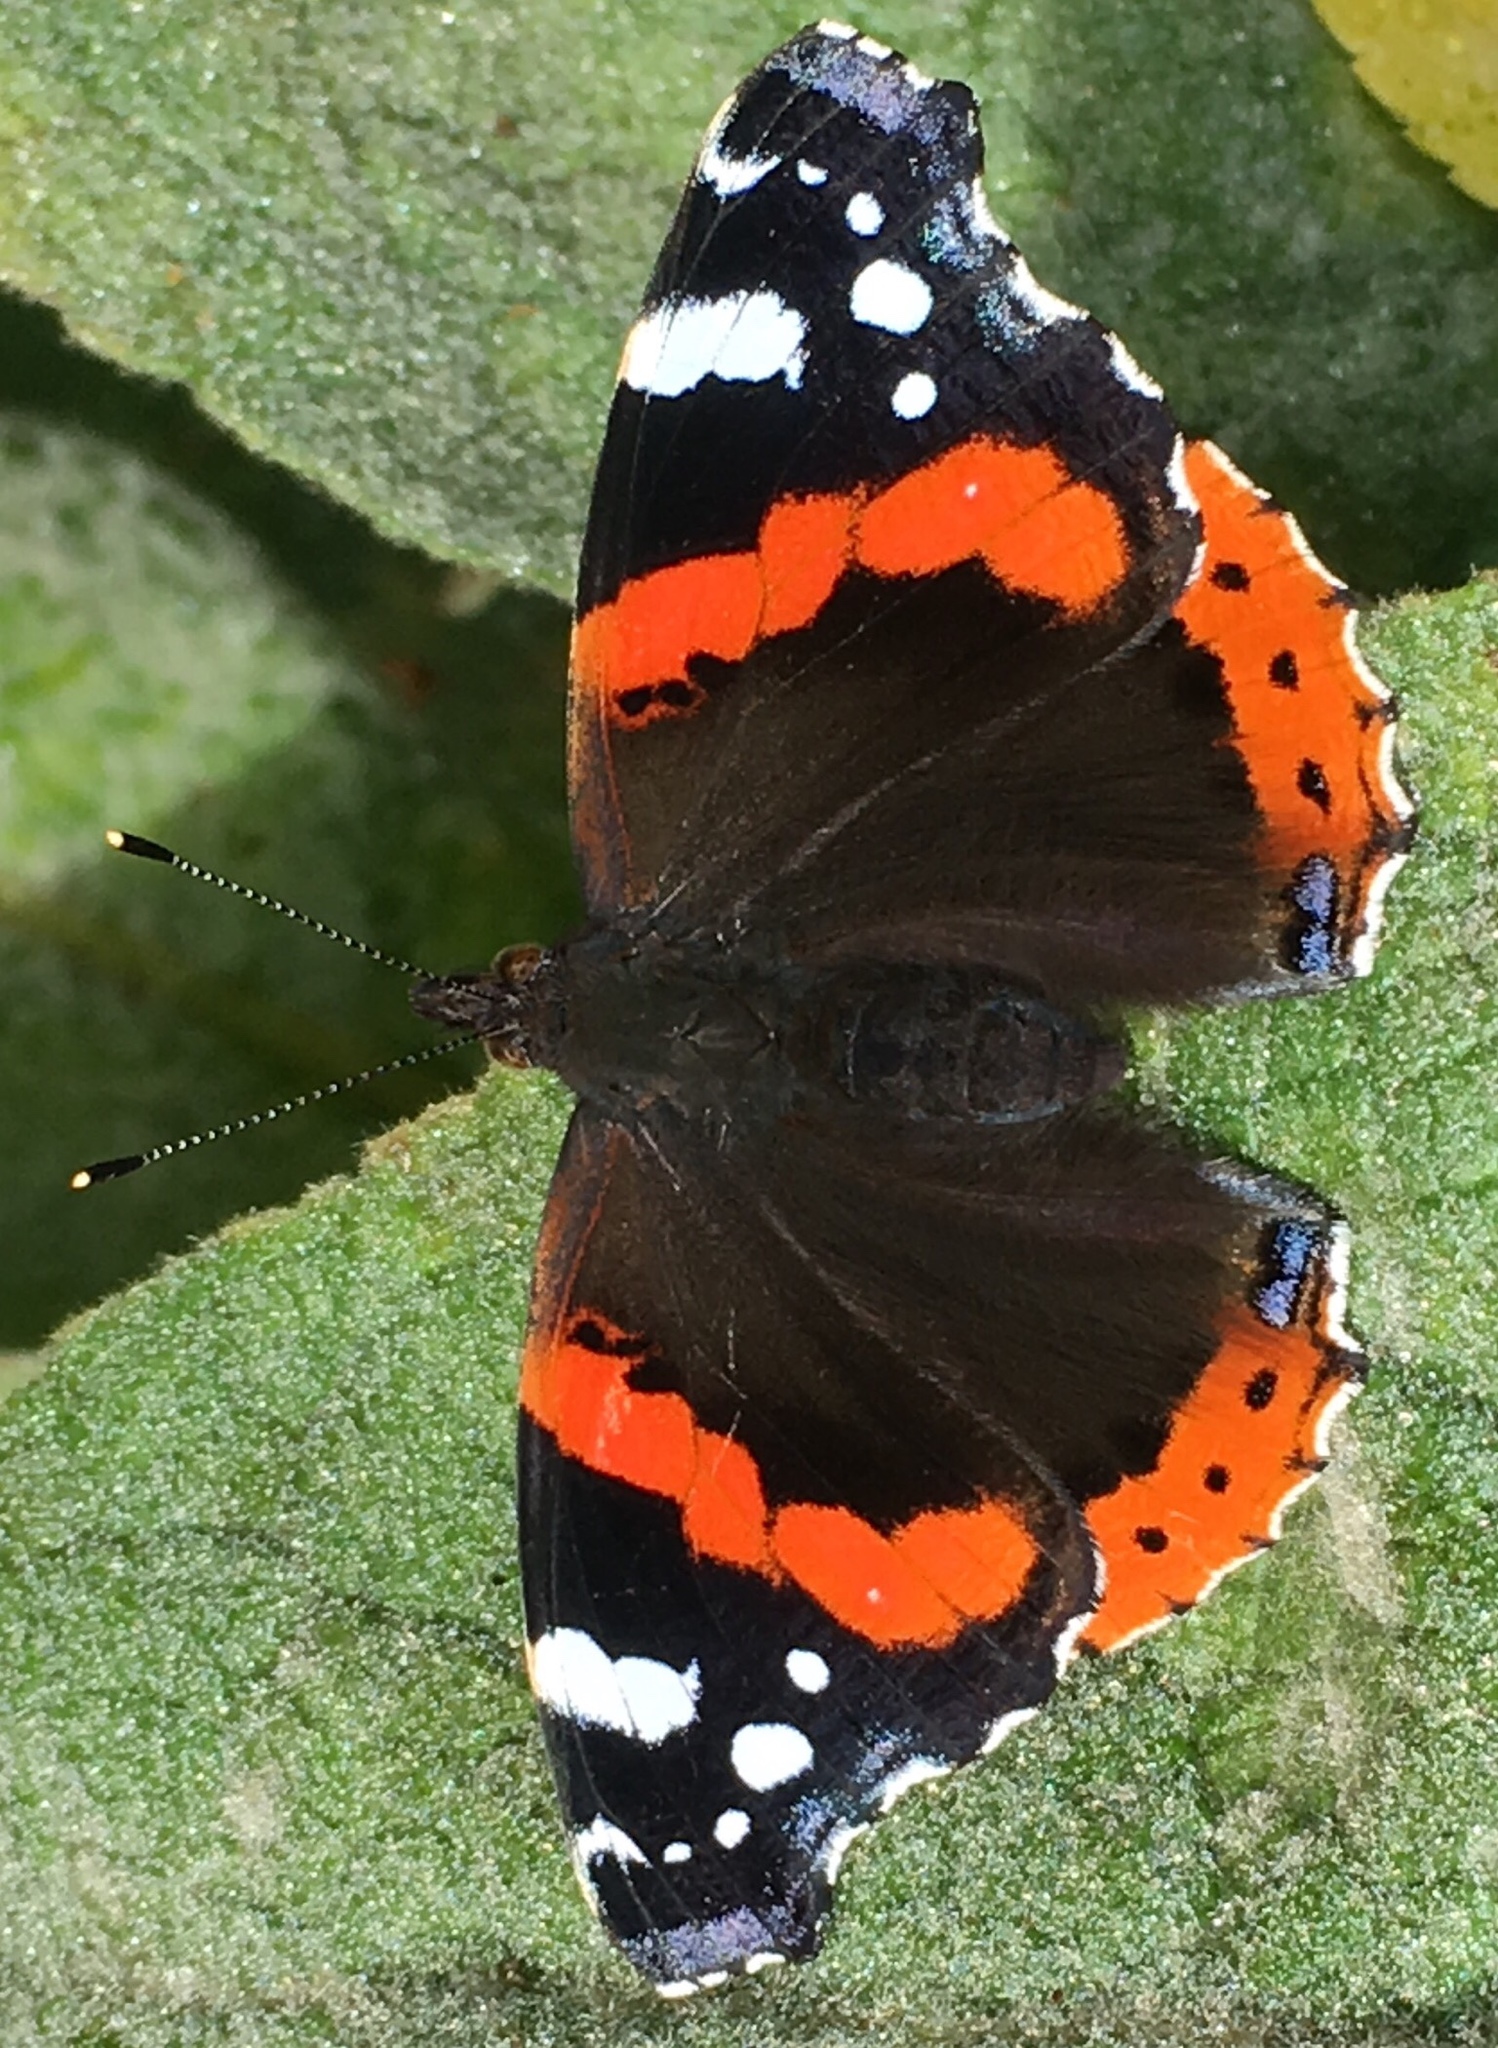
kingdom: Animalia
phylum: Arthropoda
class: Insecta
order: Lepidoptera
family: Nymphalidae
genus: Vanessa
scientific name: Vanessa atalanta
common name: Red admiral
